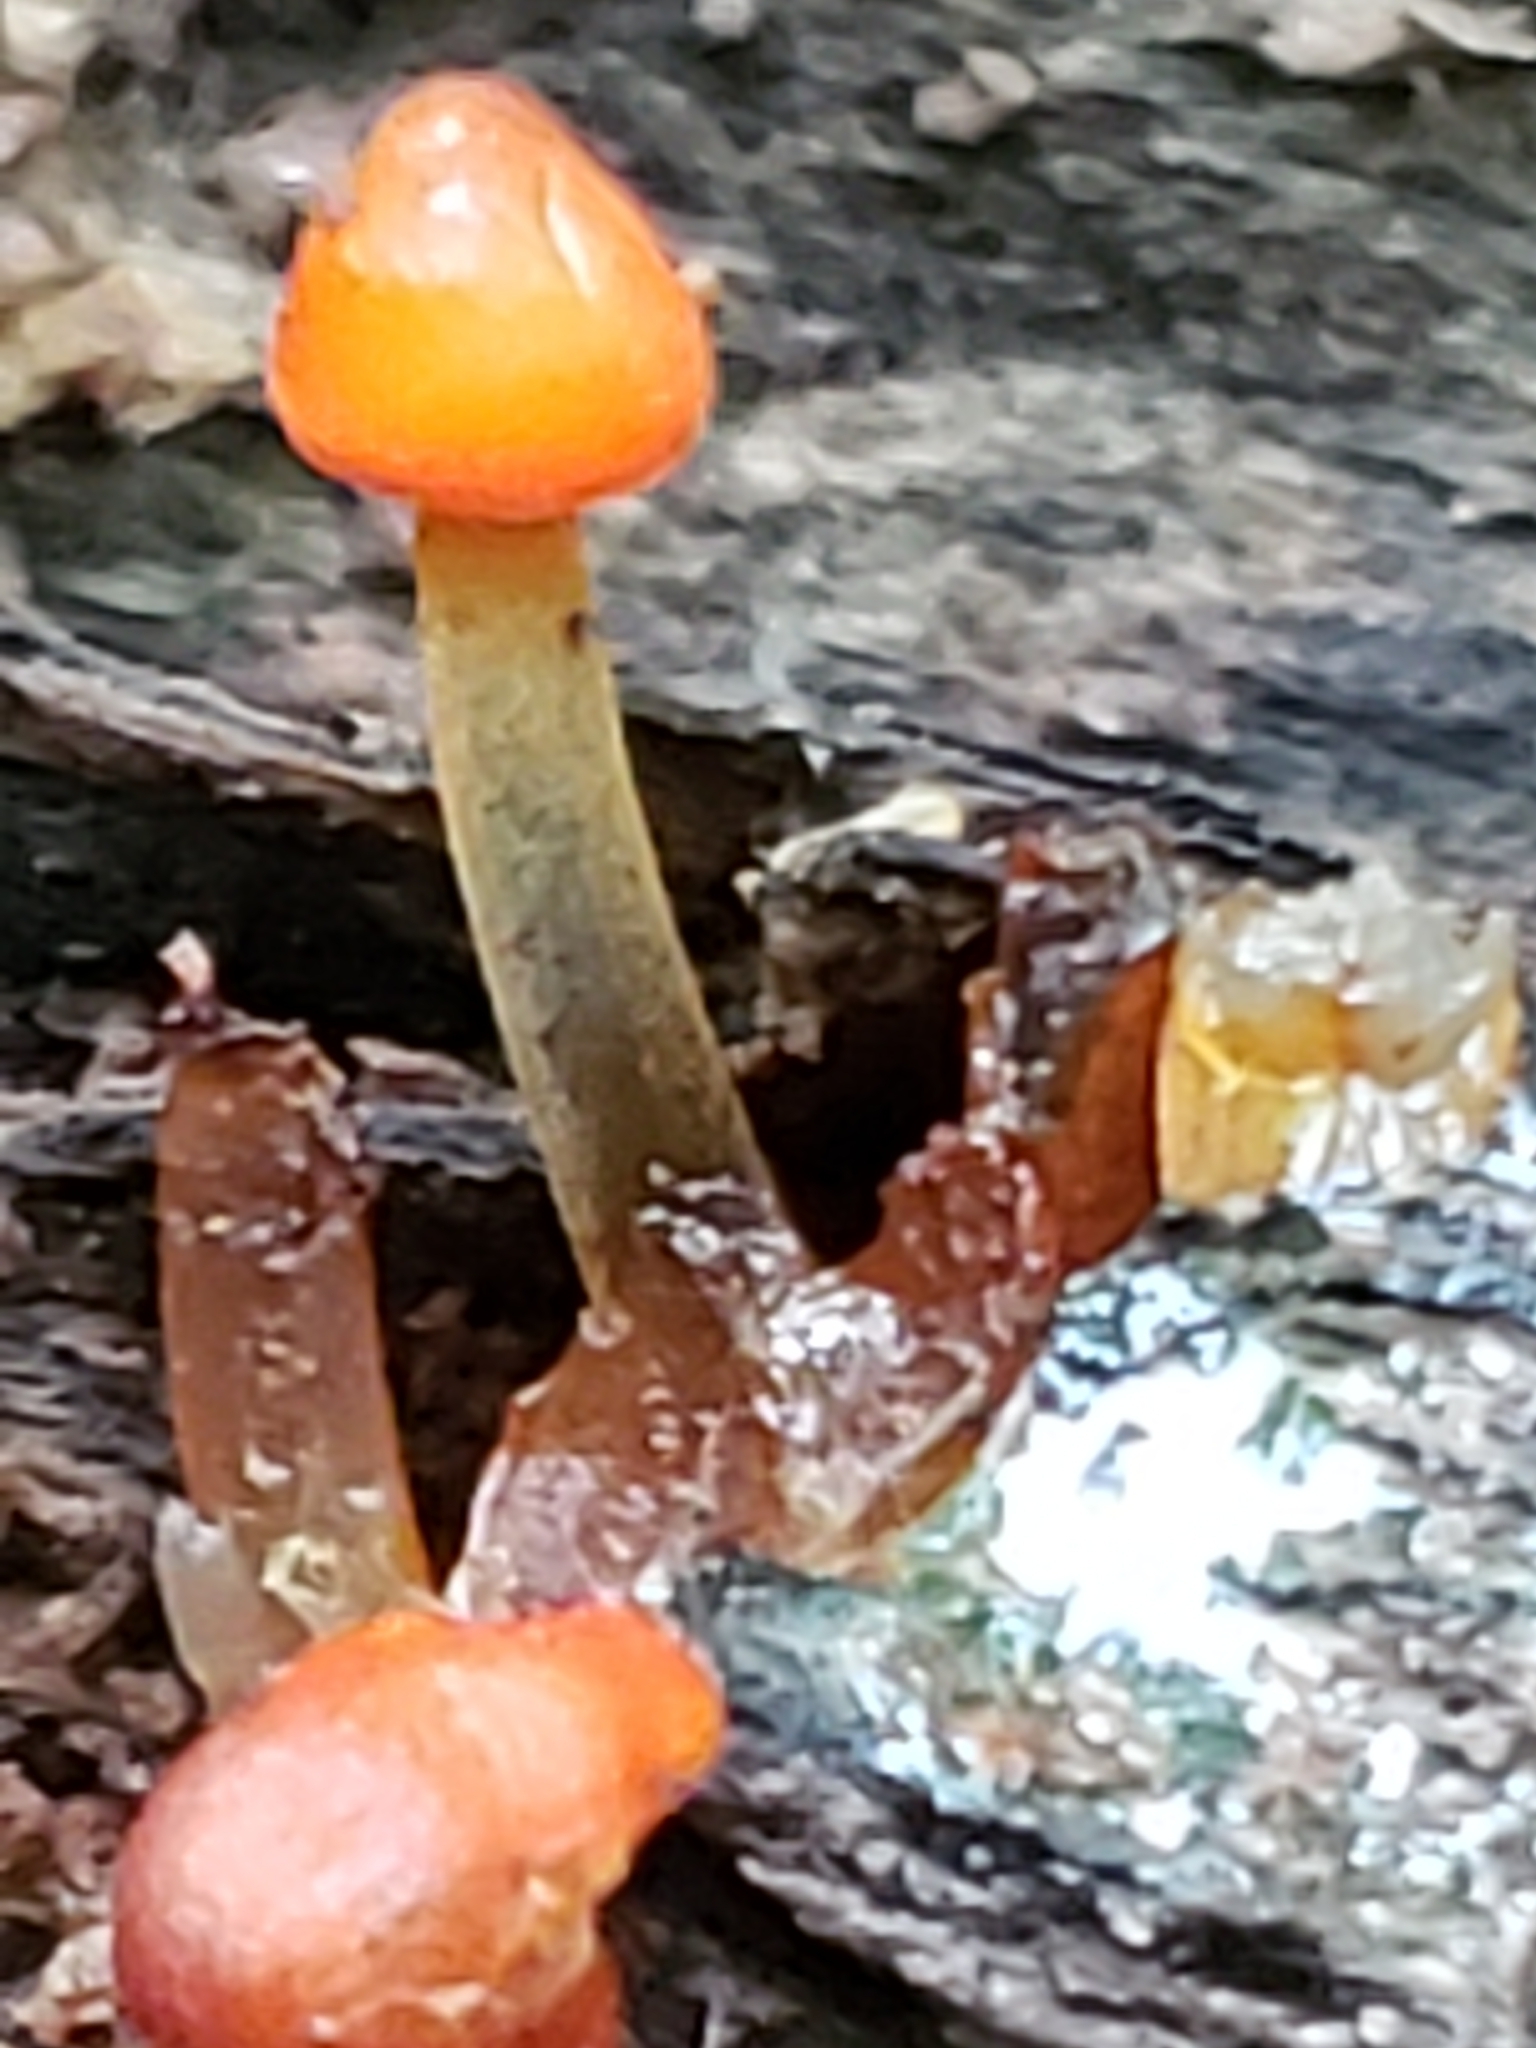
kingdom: Fungi
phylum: Basidiomycota
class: Agaricomycetes
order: Agaricales
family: Mycenaceae
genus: Mycena
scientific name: Mycena leaiana
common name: Orange mycena
